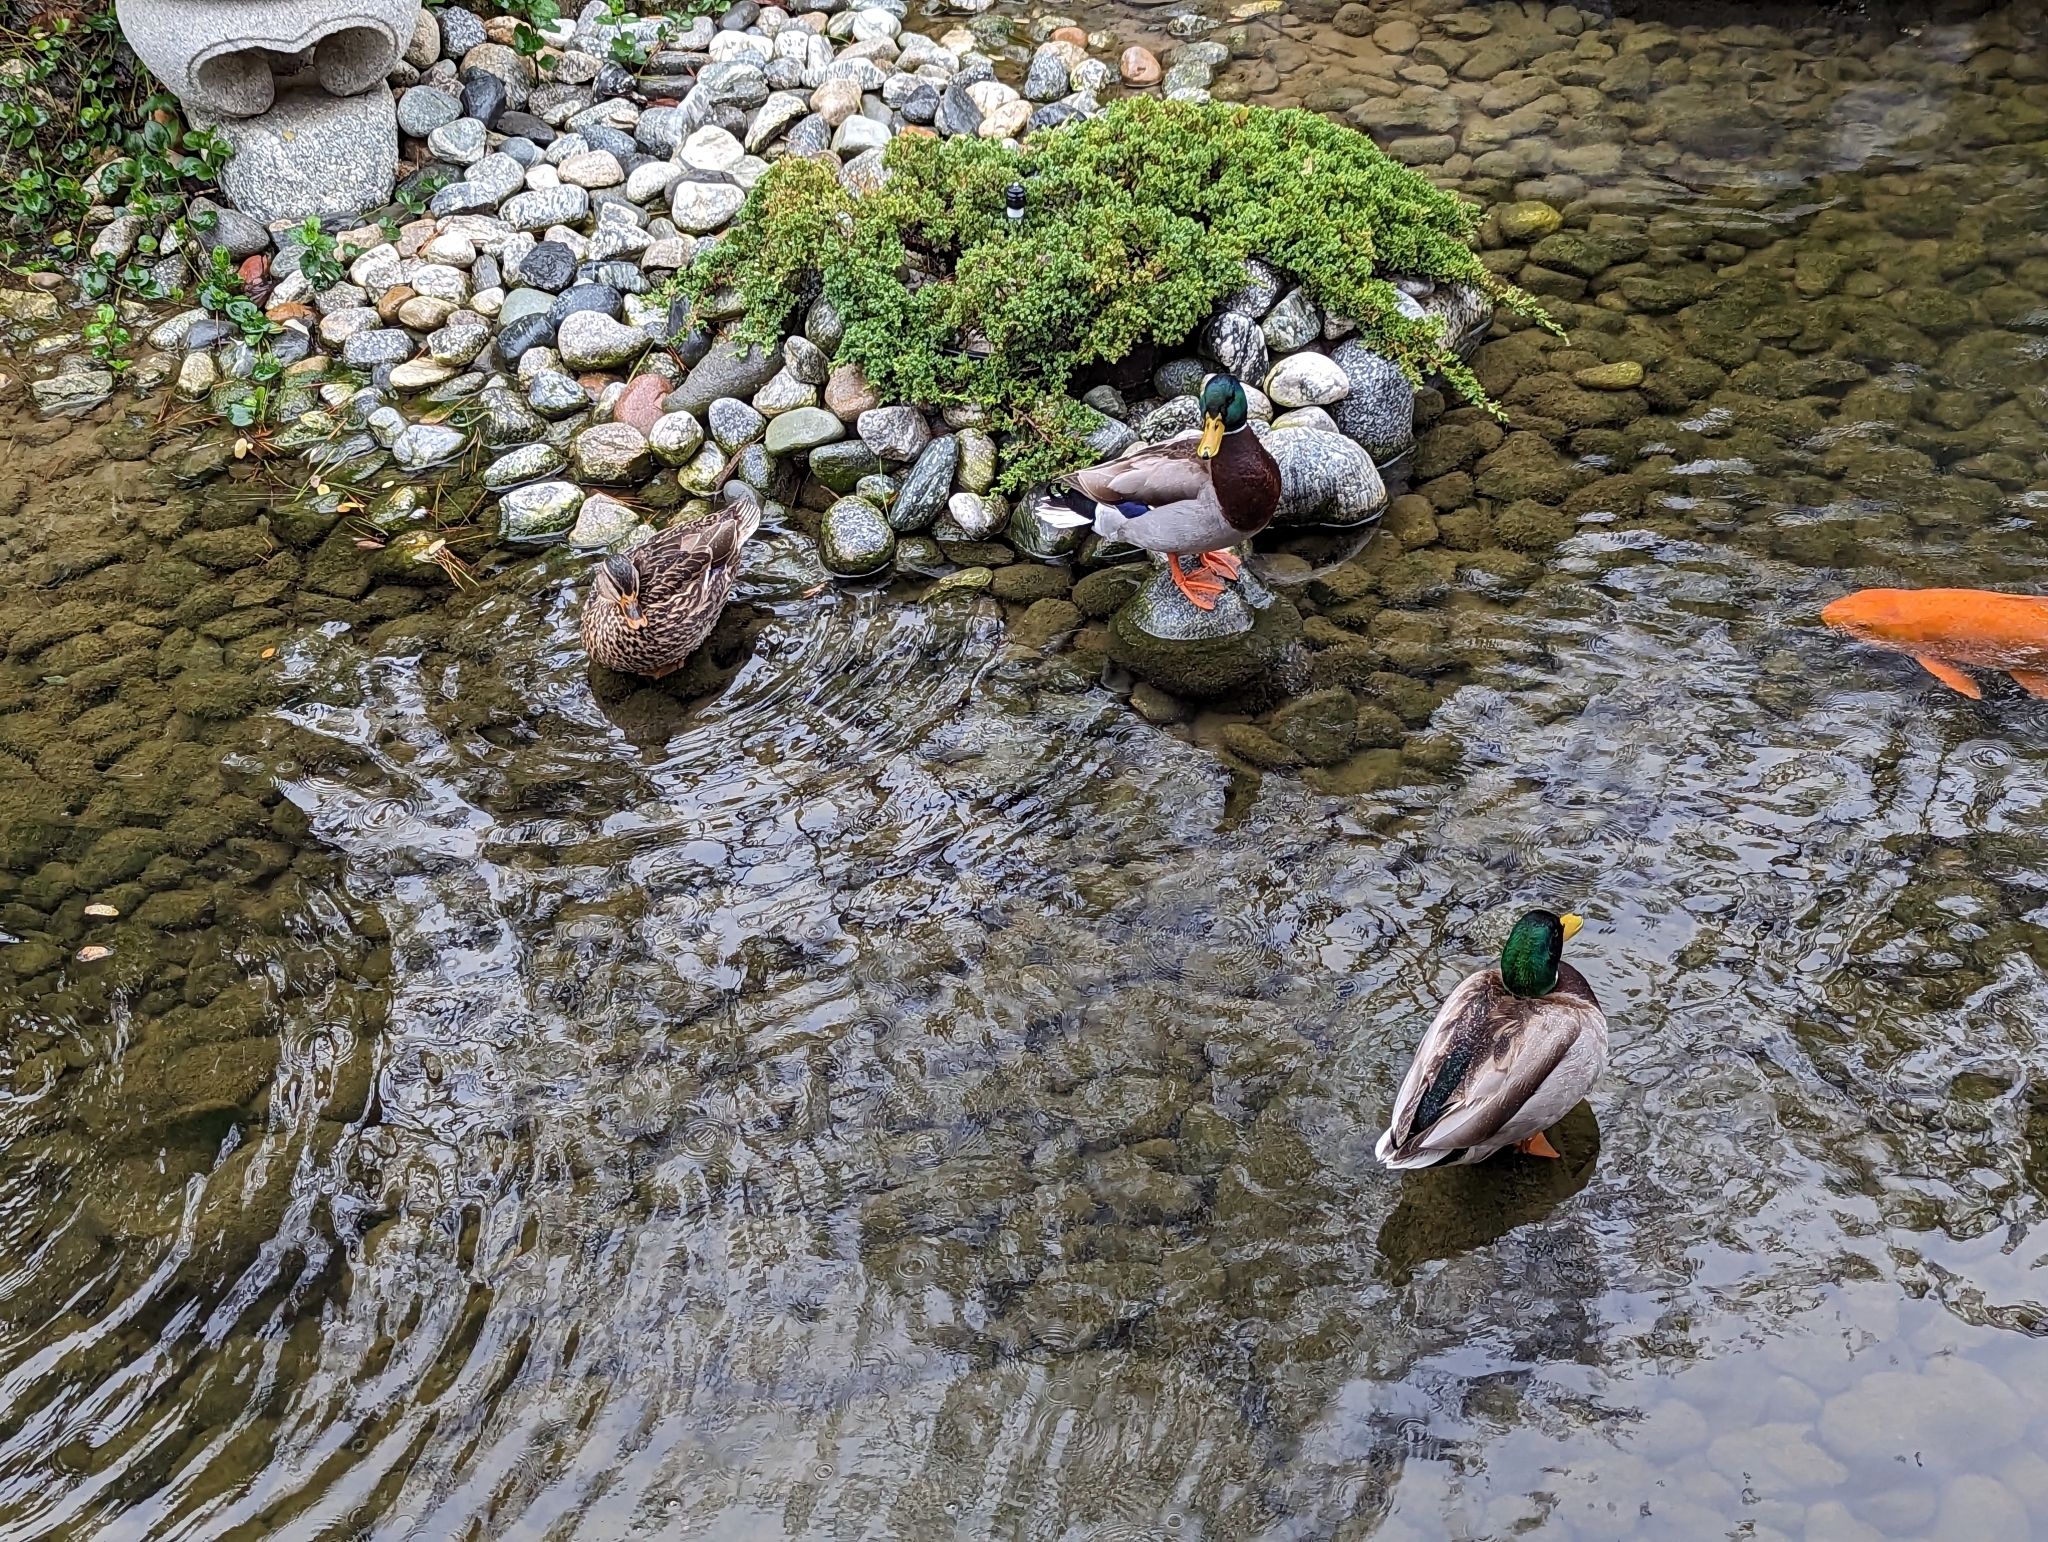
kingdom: Animalia
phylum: Chordata
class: Aves
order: Anseriformes
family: Anatidae
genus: Anas
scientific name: Anas platyrhynchos
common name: Mallard
